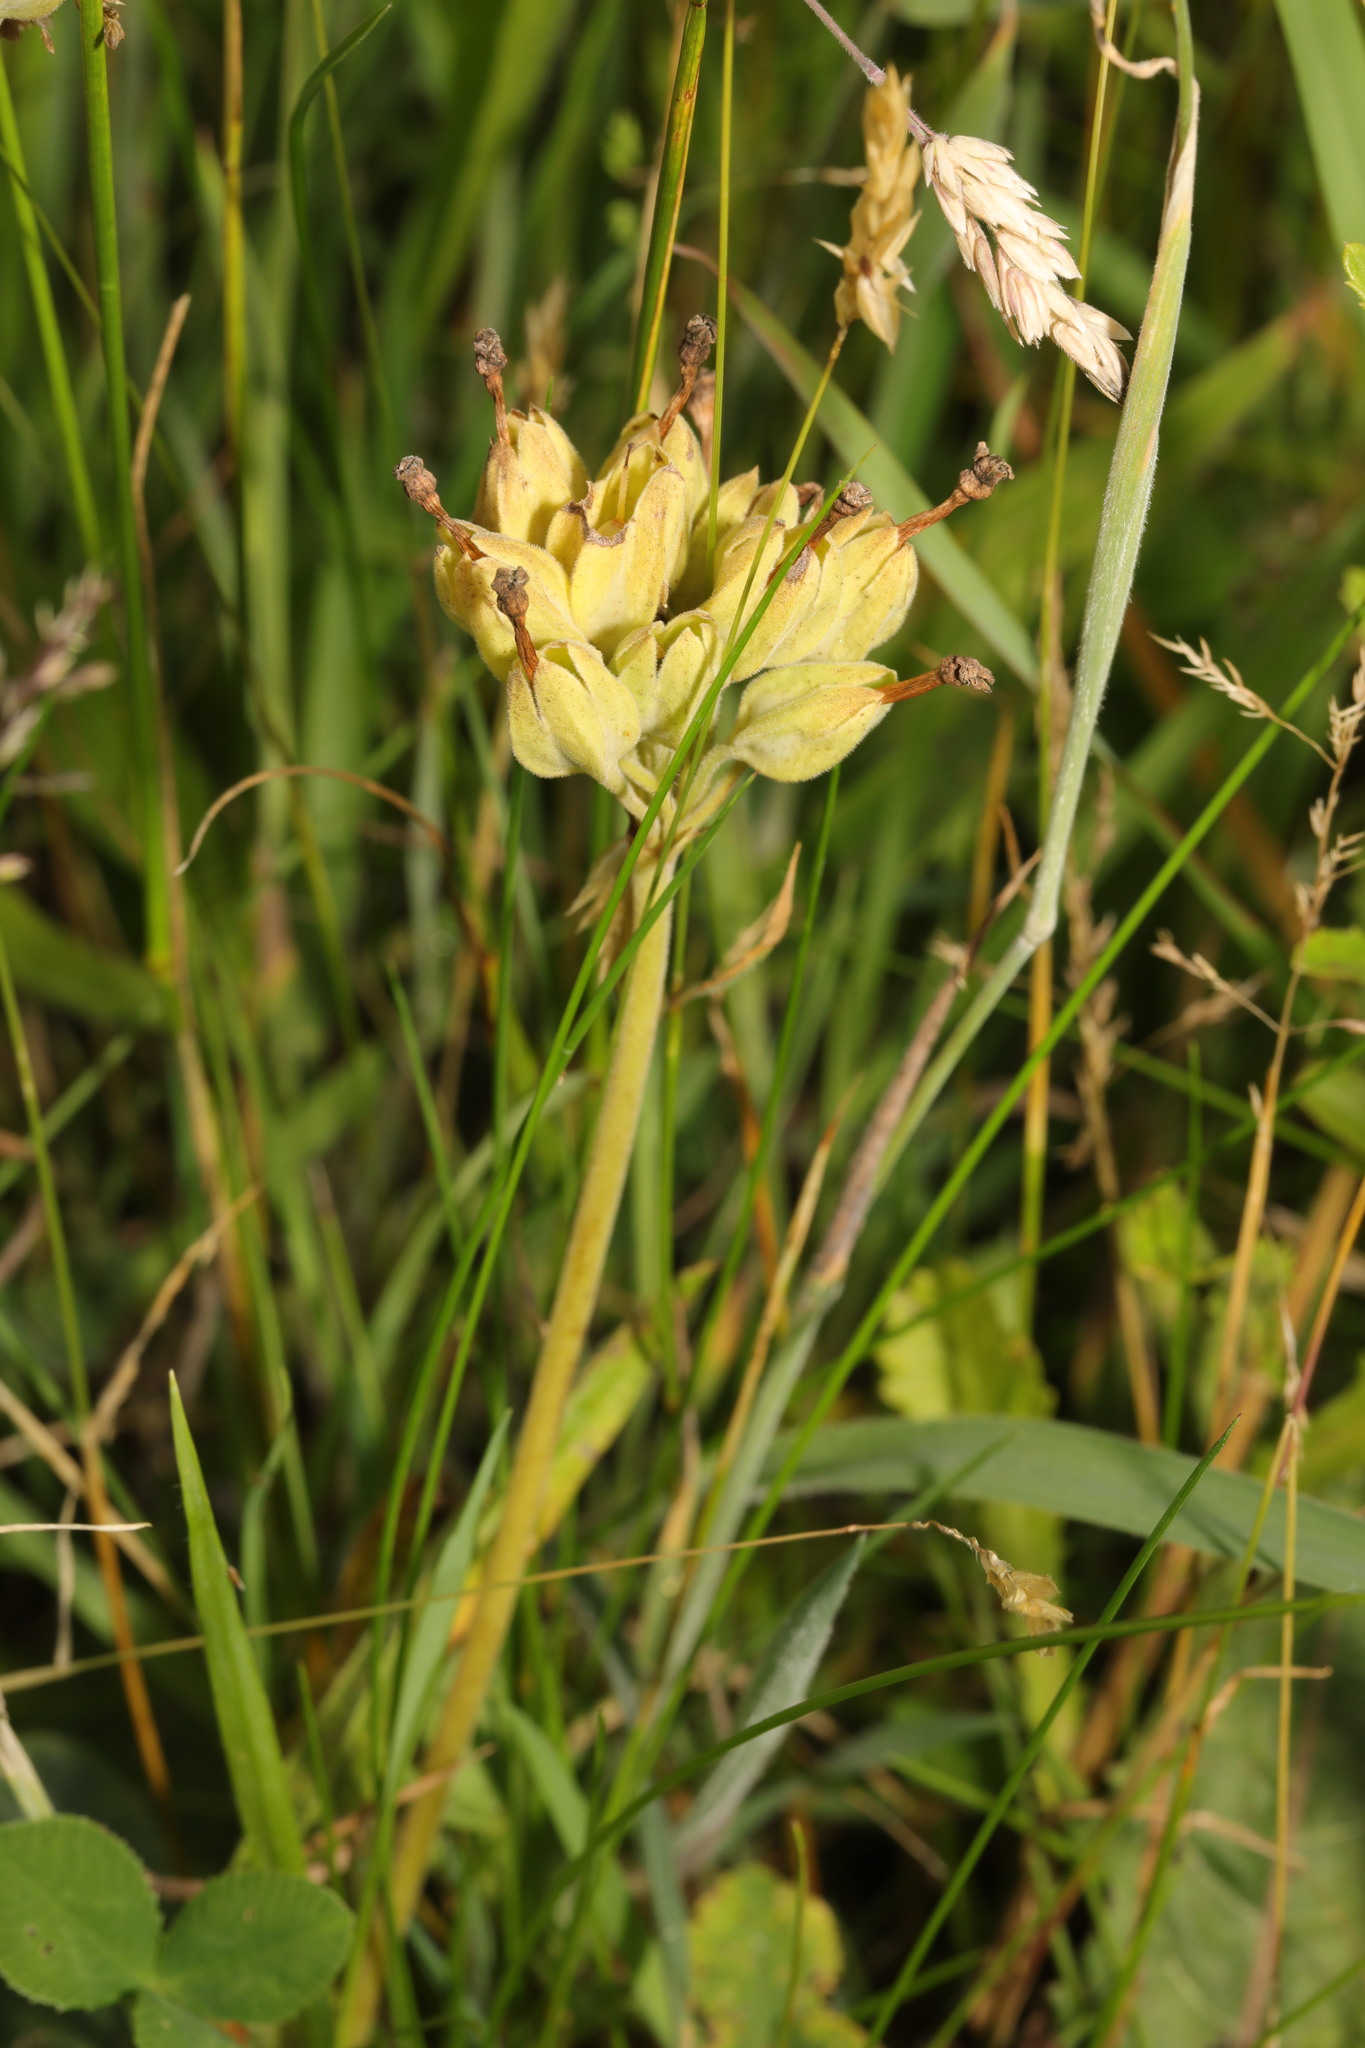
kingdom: Plantae
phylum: Tracheophyta
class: Magnoliopsida
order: Ericales
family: Primulaceae
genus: Primula
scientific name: Primula veris
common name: Cowslip
